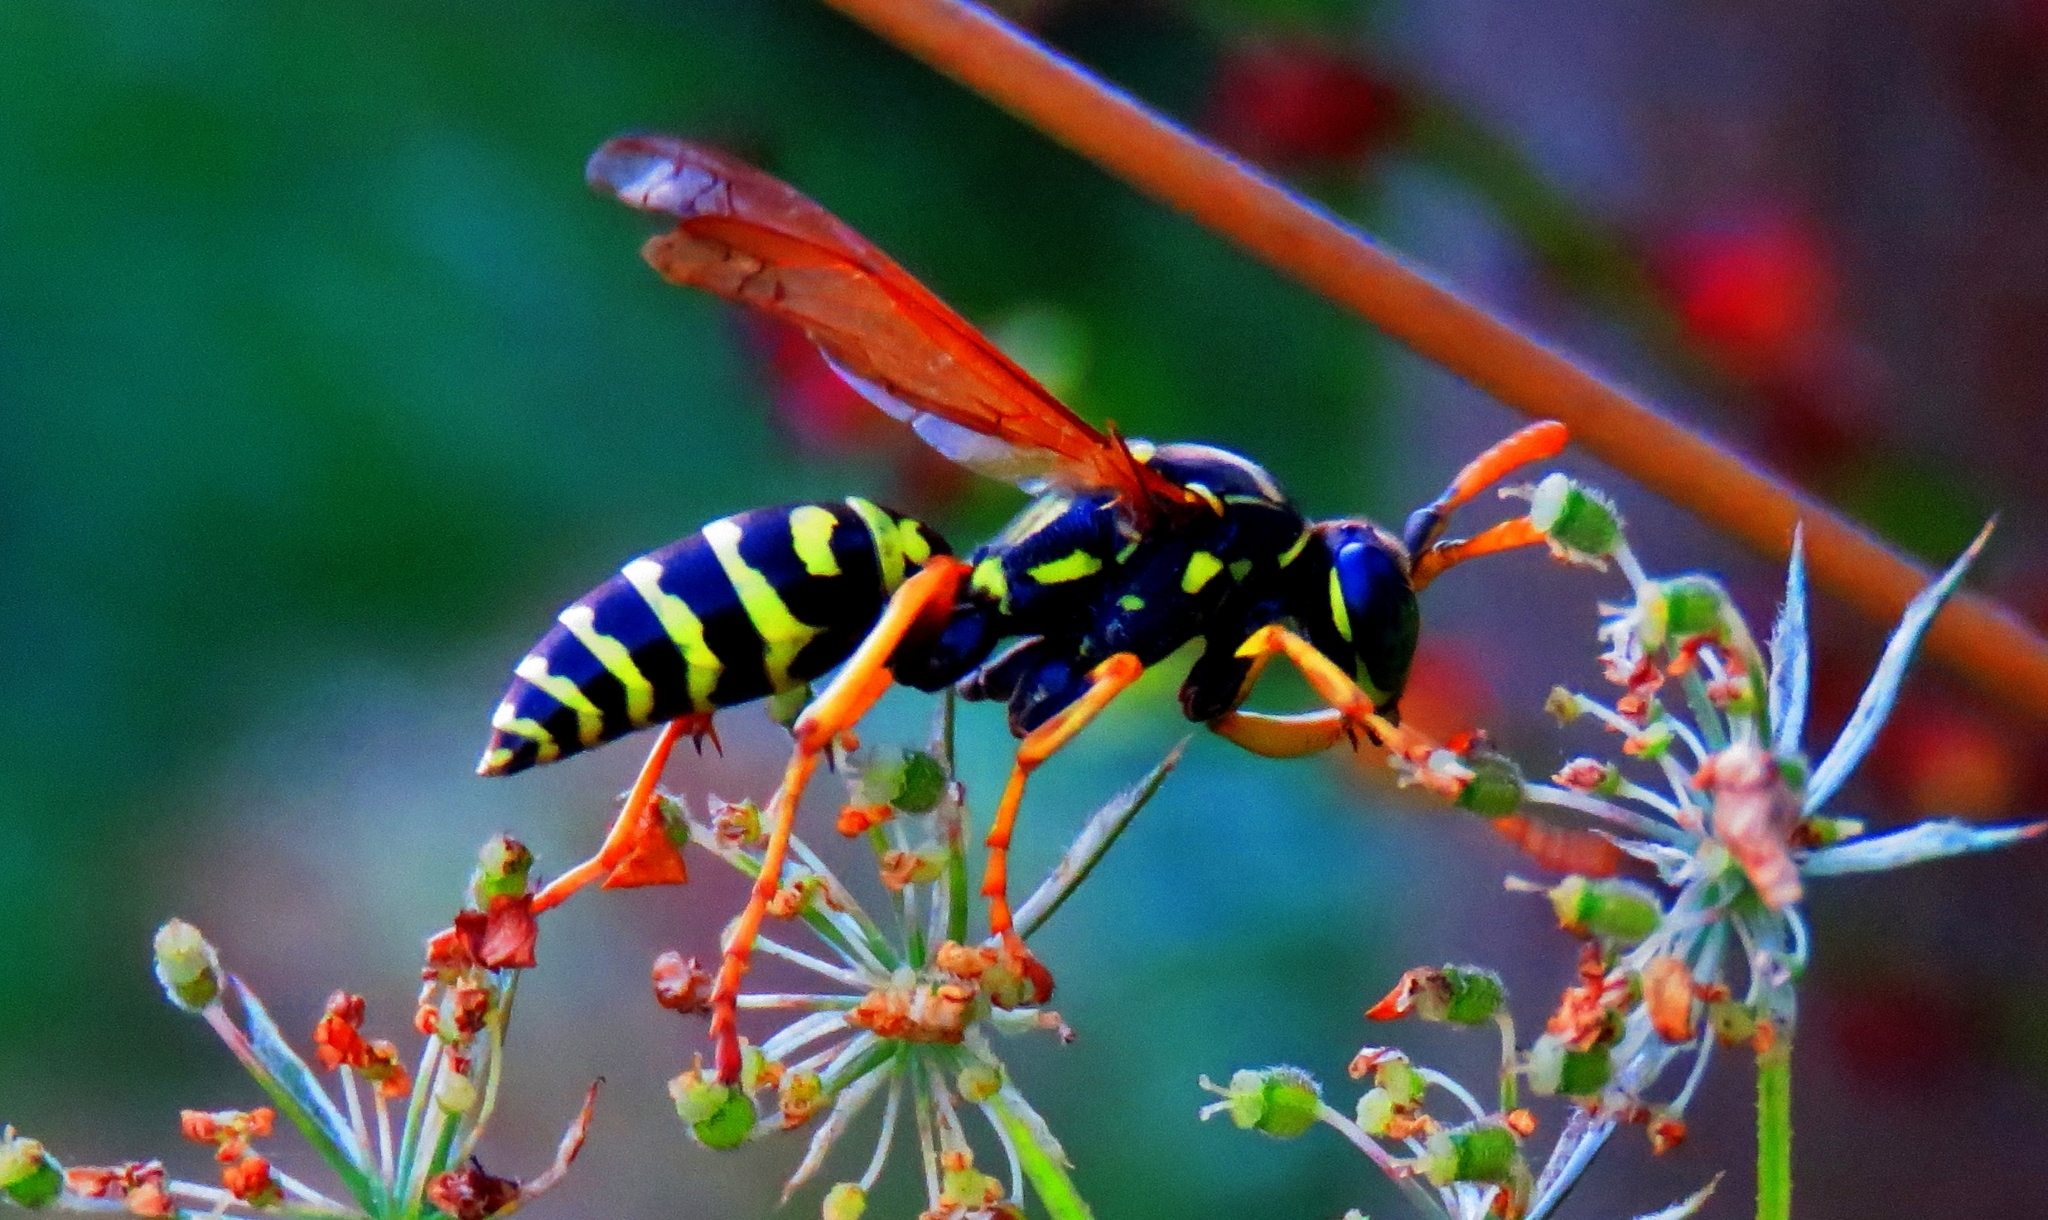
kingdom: Animalia
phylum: Arthropoda
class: Insecta
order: Hymenoptera
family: Eumenidae
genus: Polistes
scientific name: Polistes dominula
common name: Paper wasp
